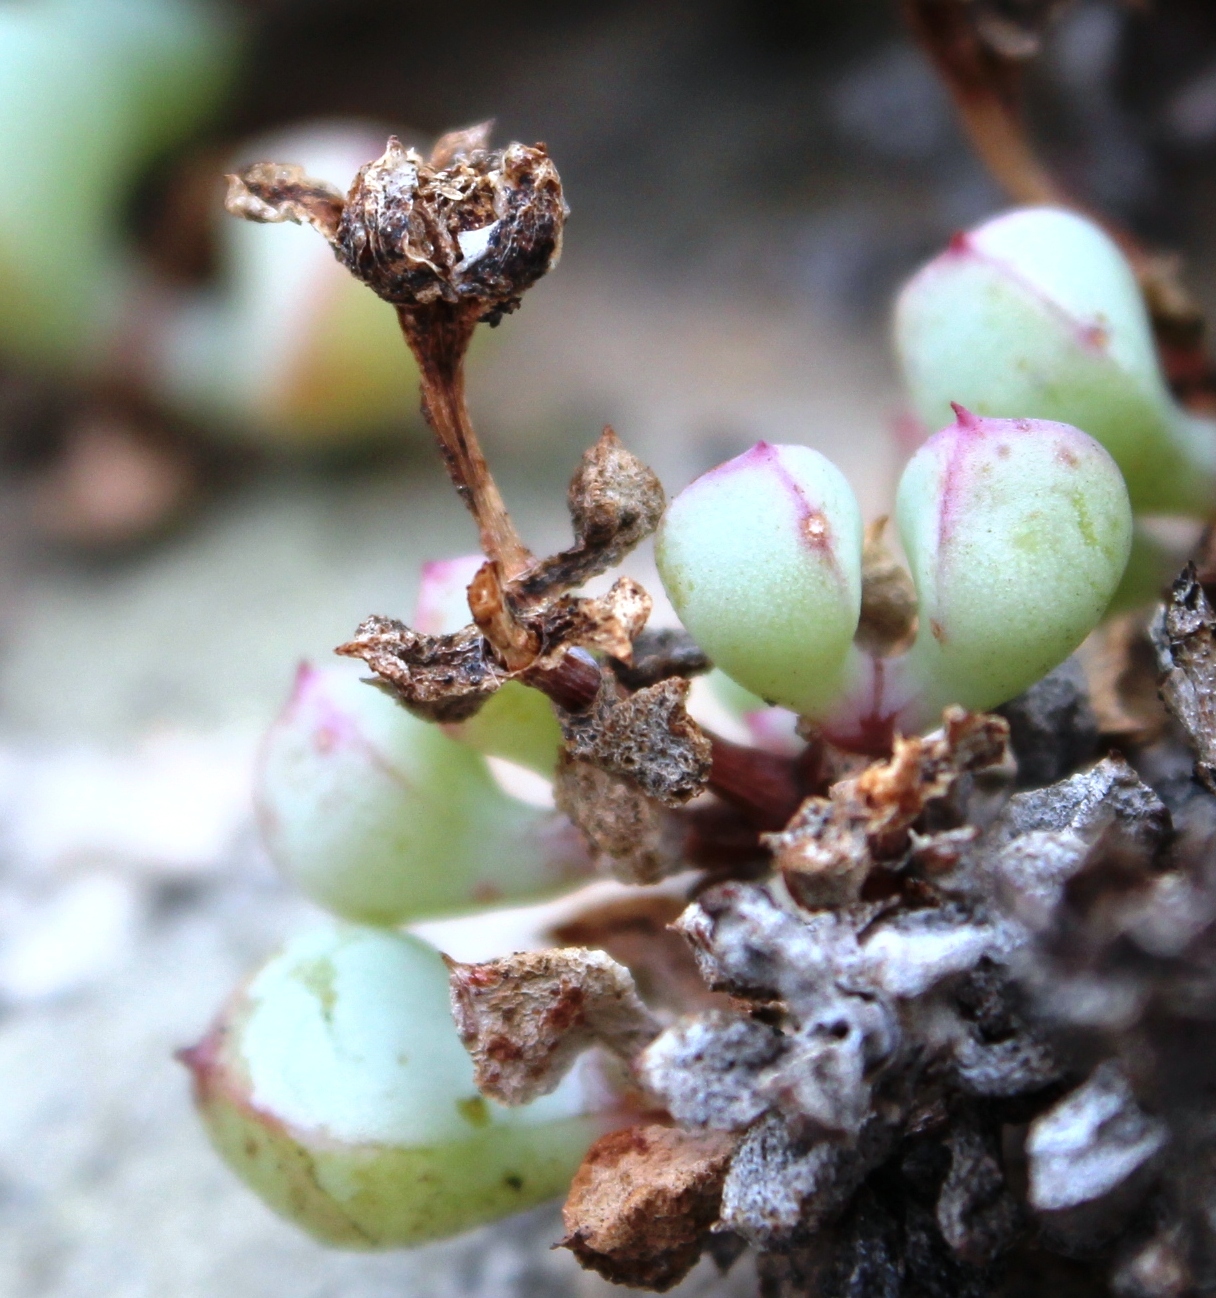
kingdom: Plantae
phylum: Tracheophyta
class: Magnoliopsida
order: Caryophyllales
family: Aizoaceae
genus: Oscularia
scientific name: Oscularia piquetbergensis
